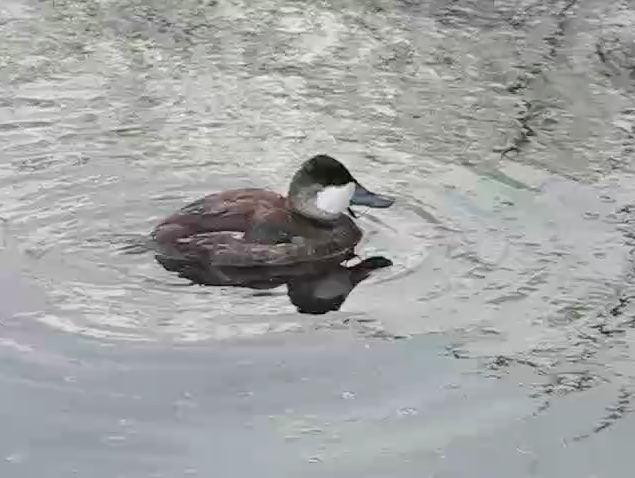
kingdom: Animalia
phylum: Chordata
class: Aves
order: Anseriformes
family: Anatidae
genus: Oxyura
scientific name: Oxyura jamaicensis
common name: Ruddy duck
